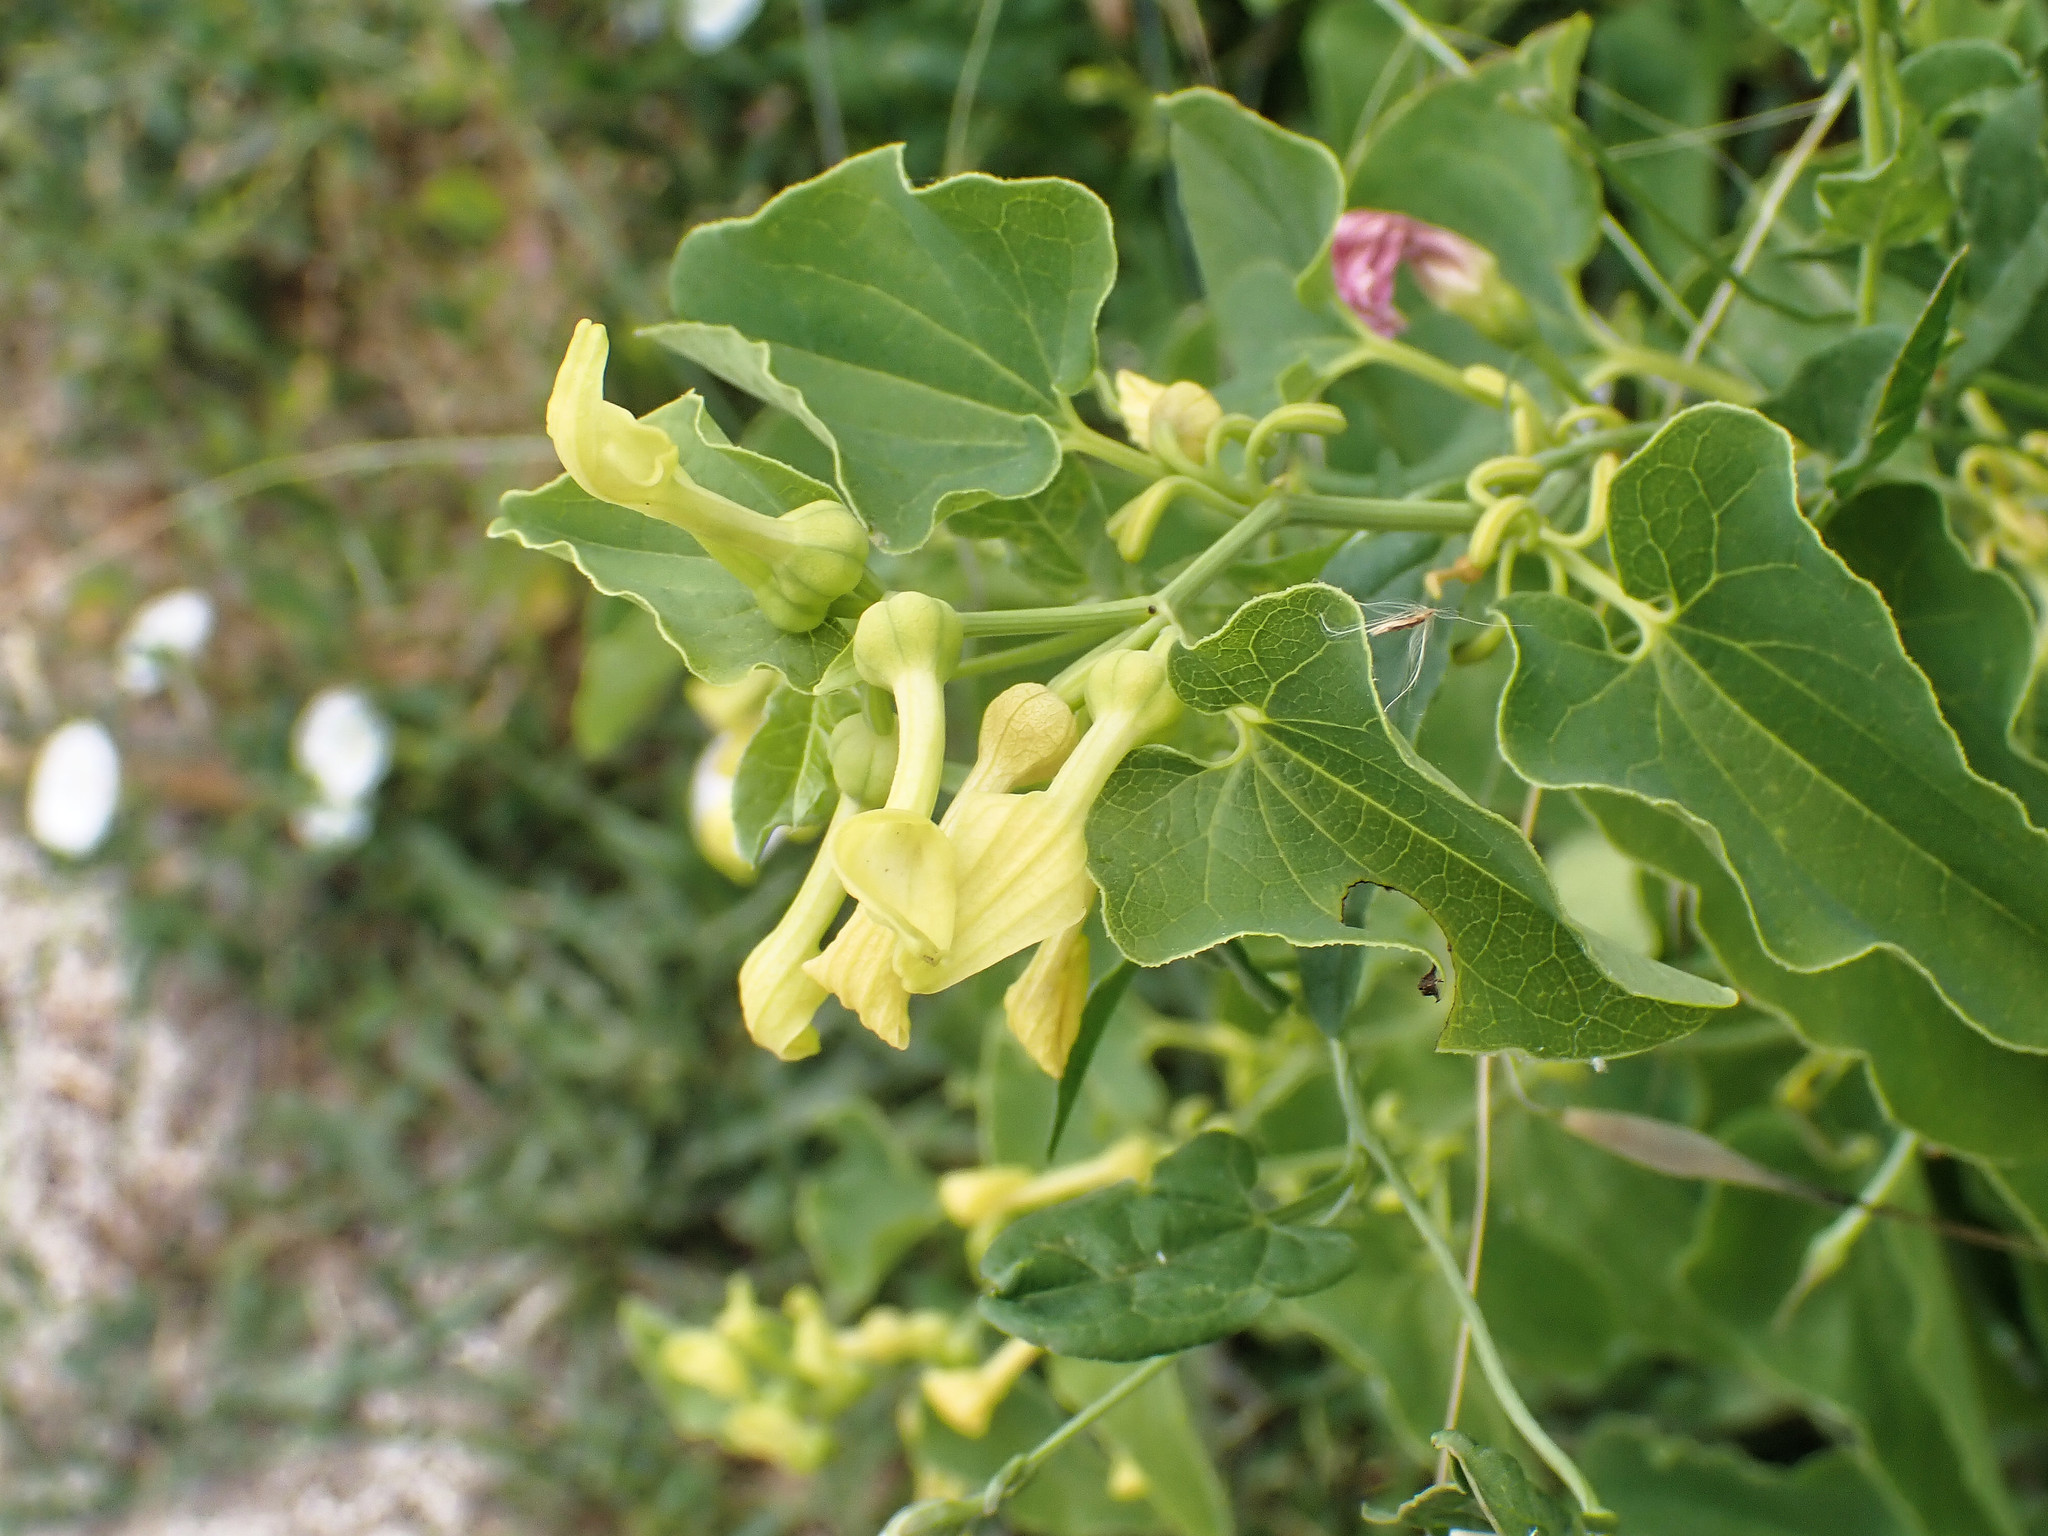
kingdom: Plantae
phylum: Tracheophyta
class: Magnoliopsida
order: Piperales
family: Aristolochiaceae
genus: Aristolochia
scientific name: Aristolochia clematitis
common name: Birthwort
